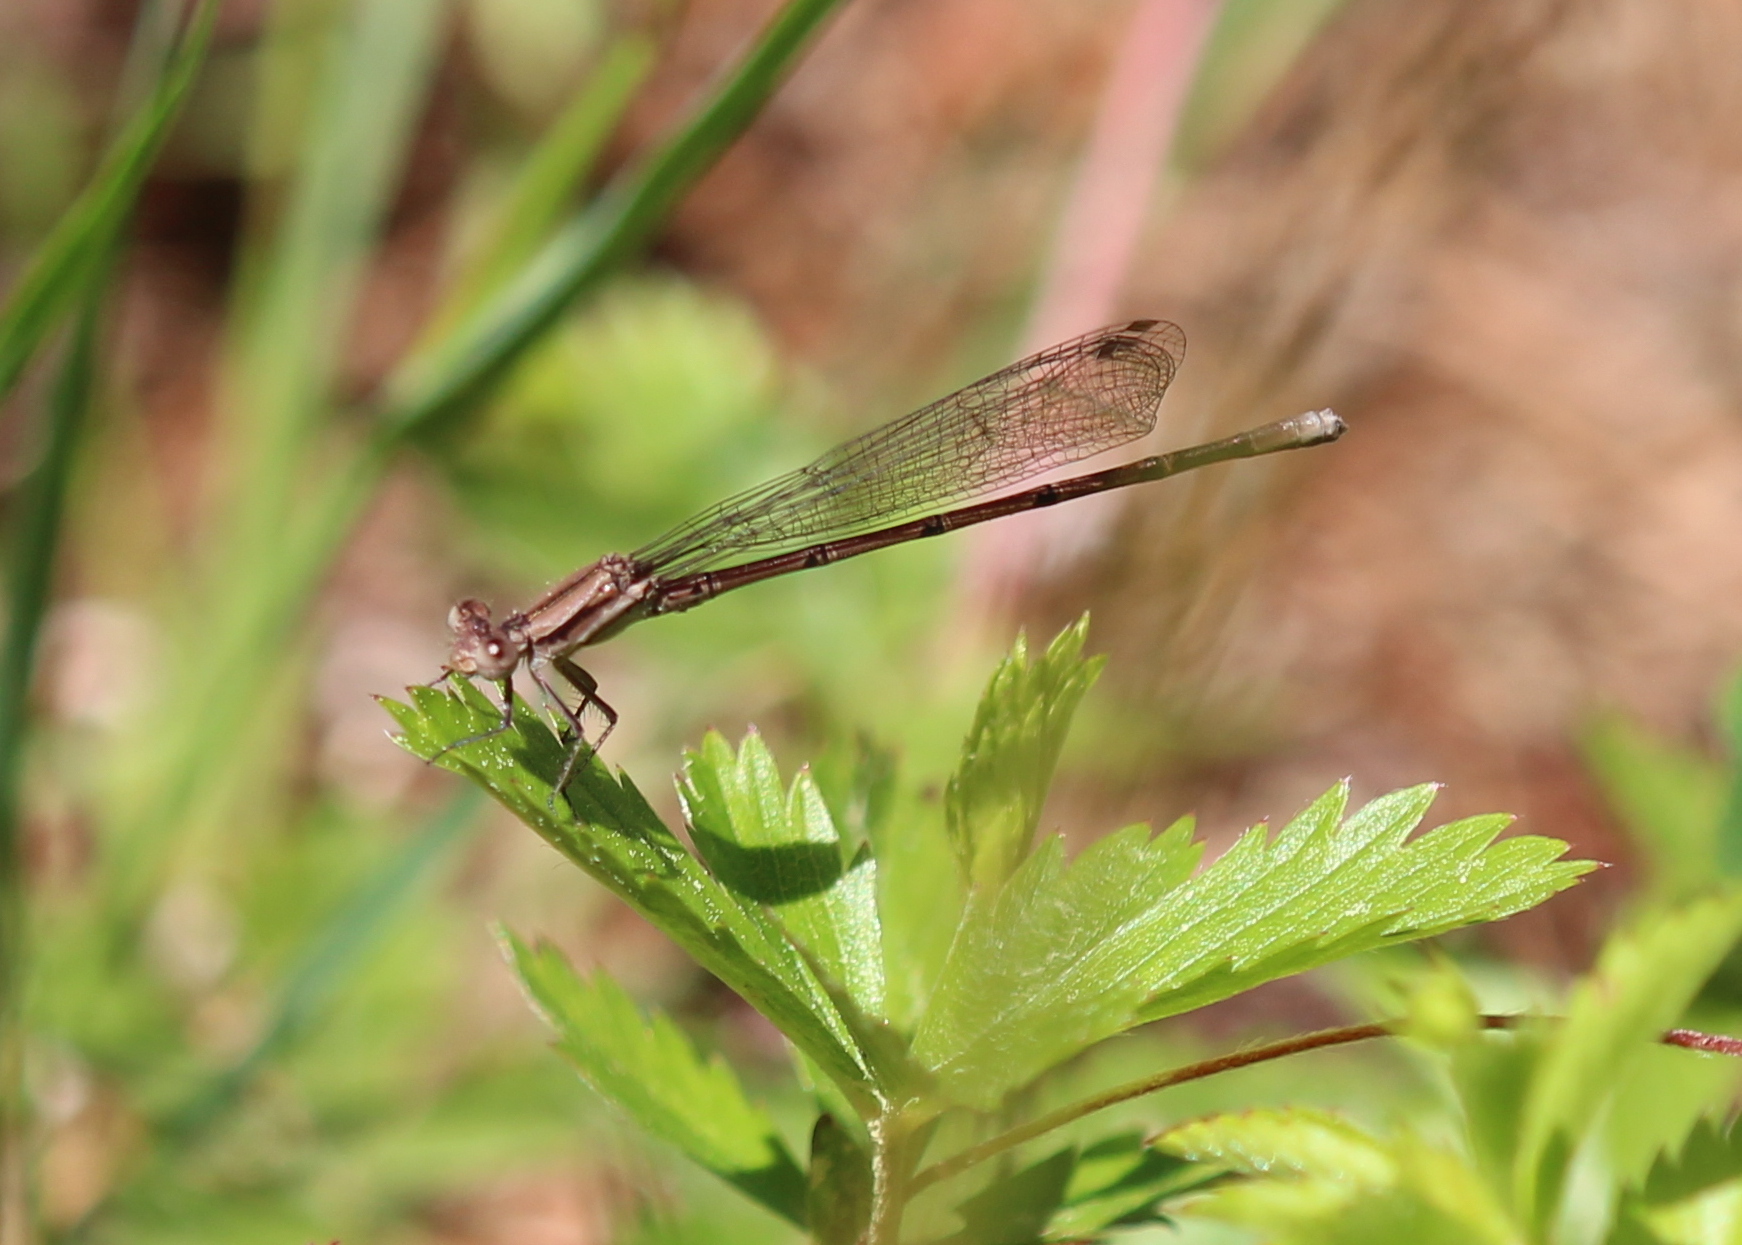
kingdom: Animalia
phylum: Arthropoda
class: Insecta
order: Odonata
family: Coenagrionidae
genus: Argia
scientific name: Argia fumipennis
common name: Variable dancer
